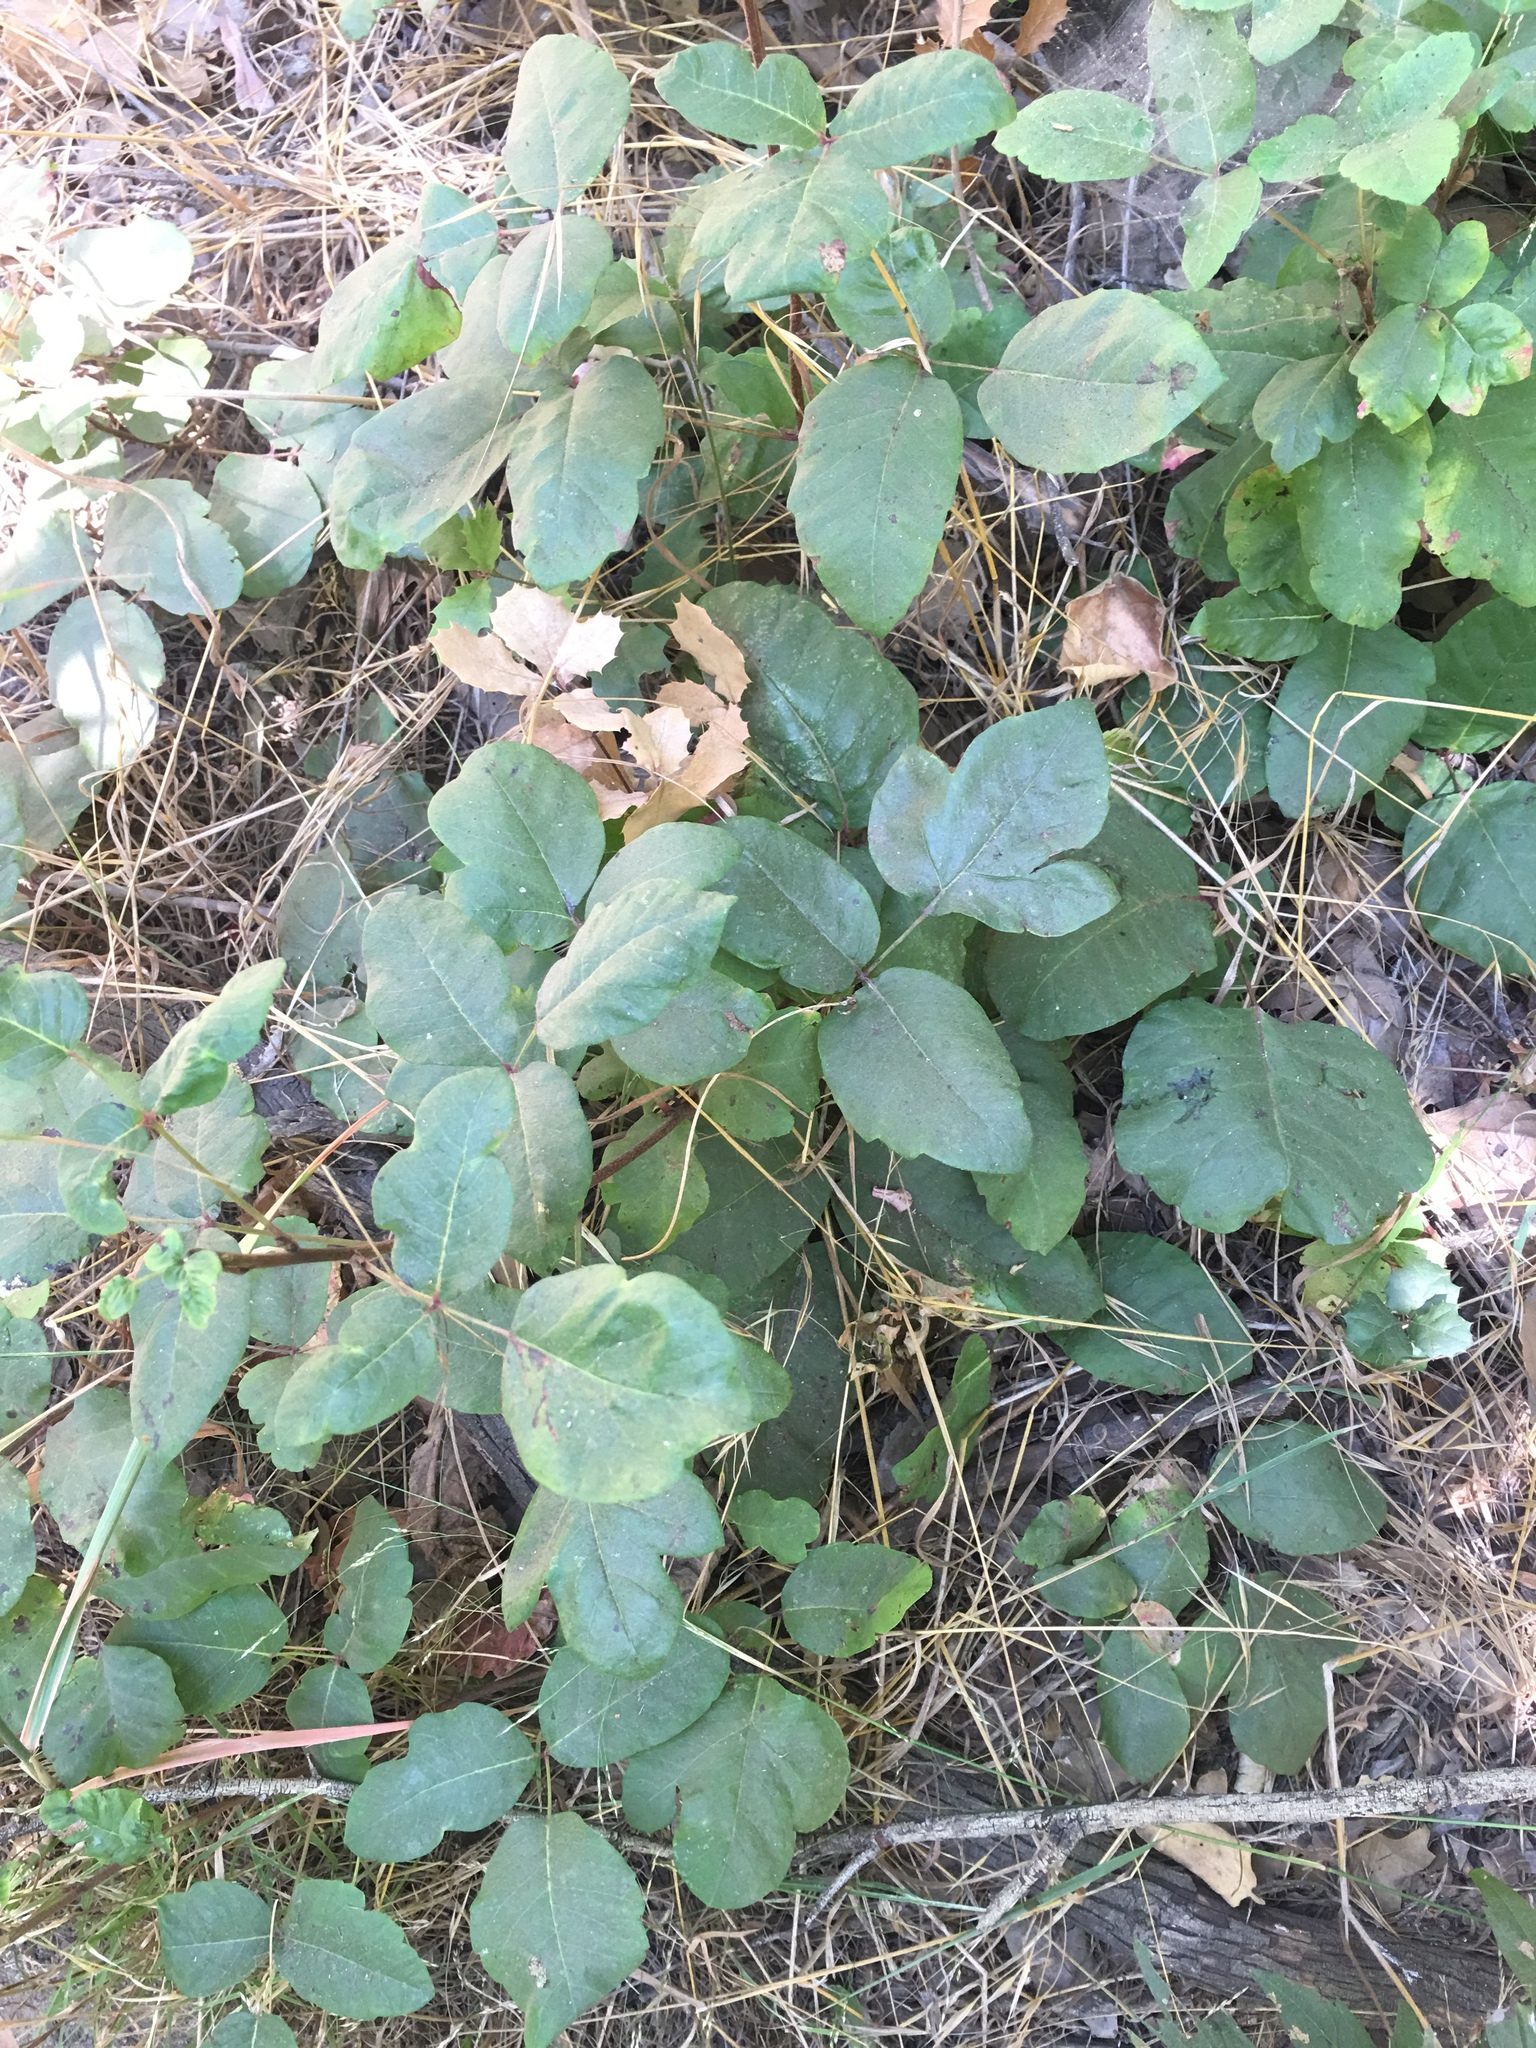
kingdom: Plantae
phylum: Tracheophyta
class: Magnoliopsida
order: Sapindales
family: Anacardiaceae
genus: Toxicodendron
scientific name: Toxicodendron diversilobum
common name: Pacific poison-oak
